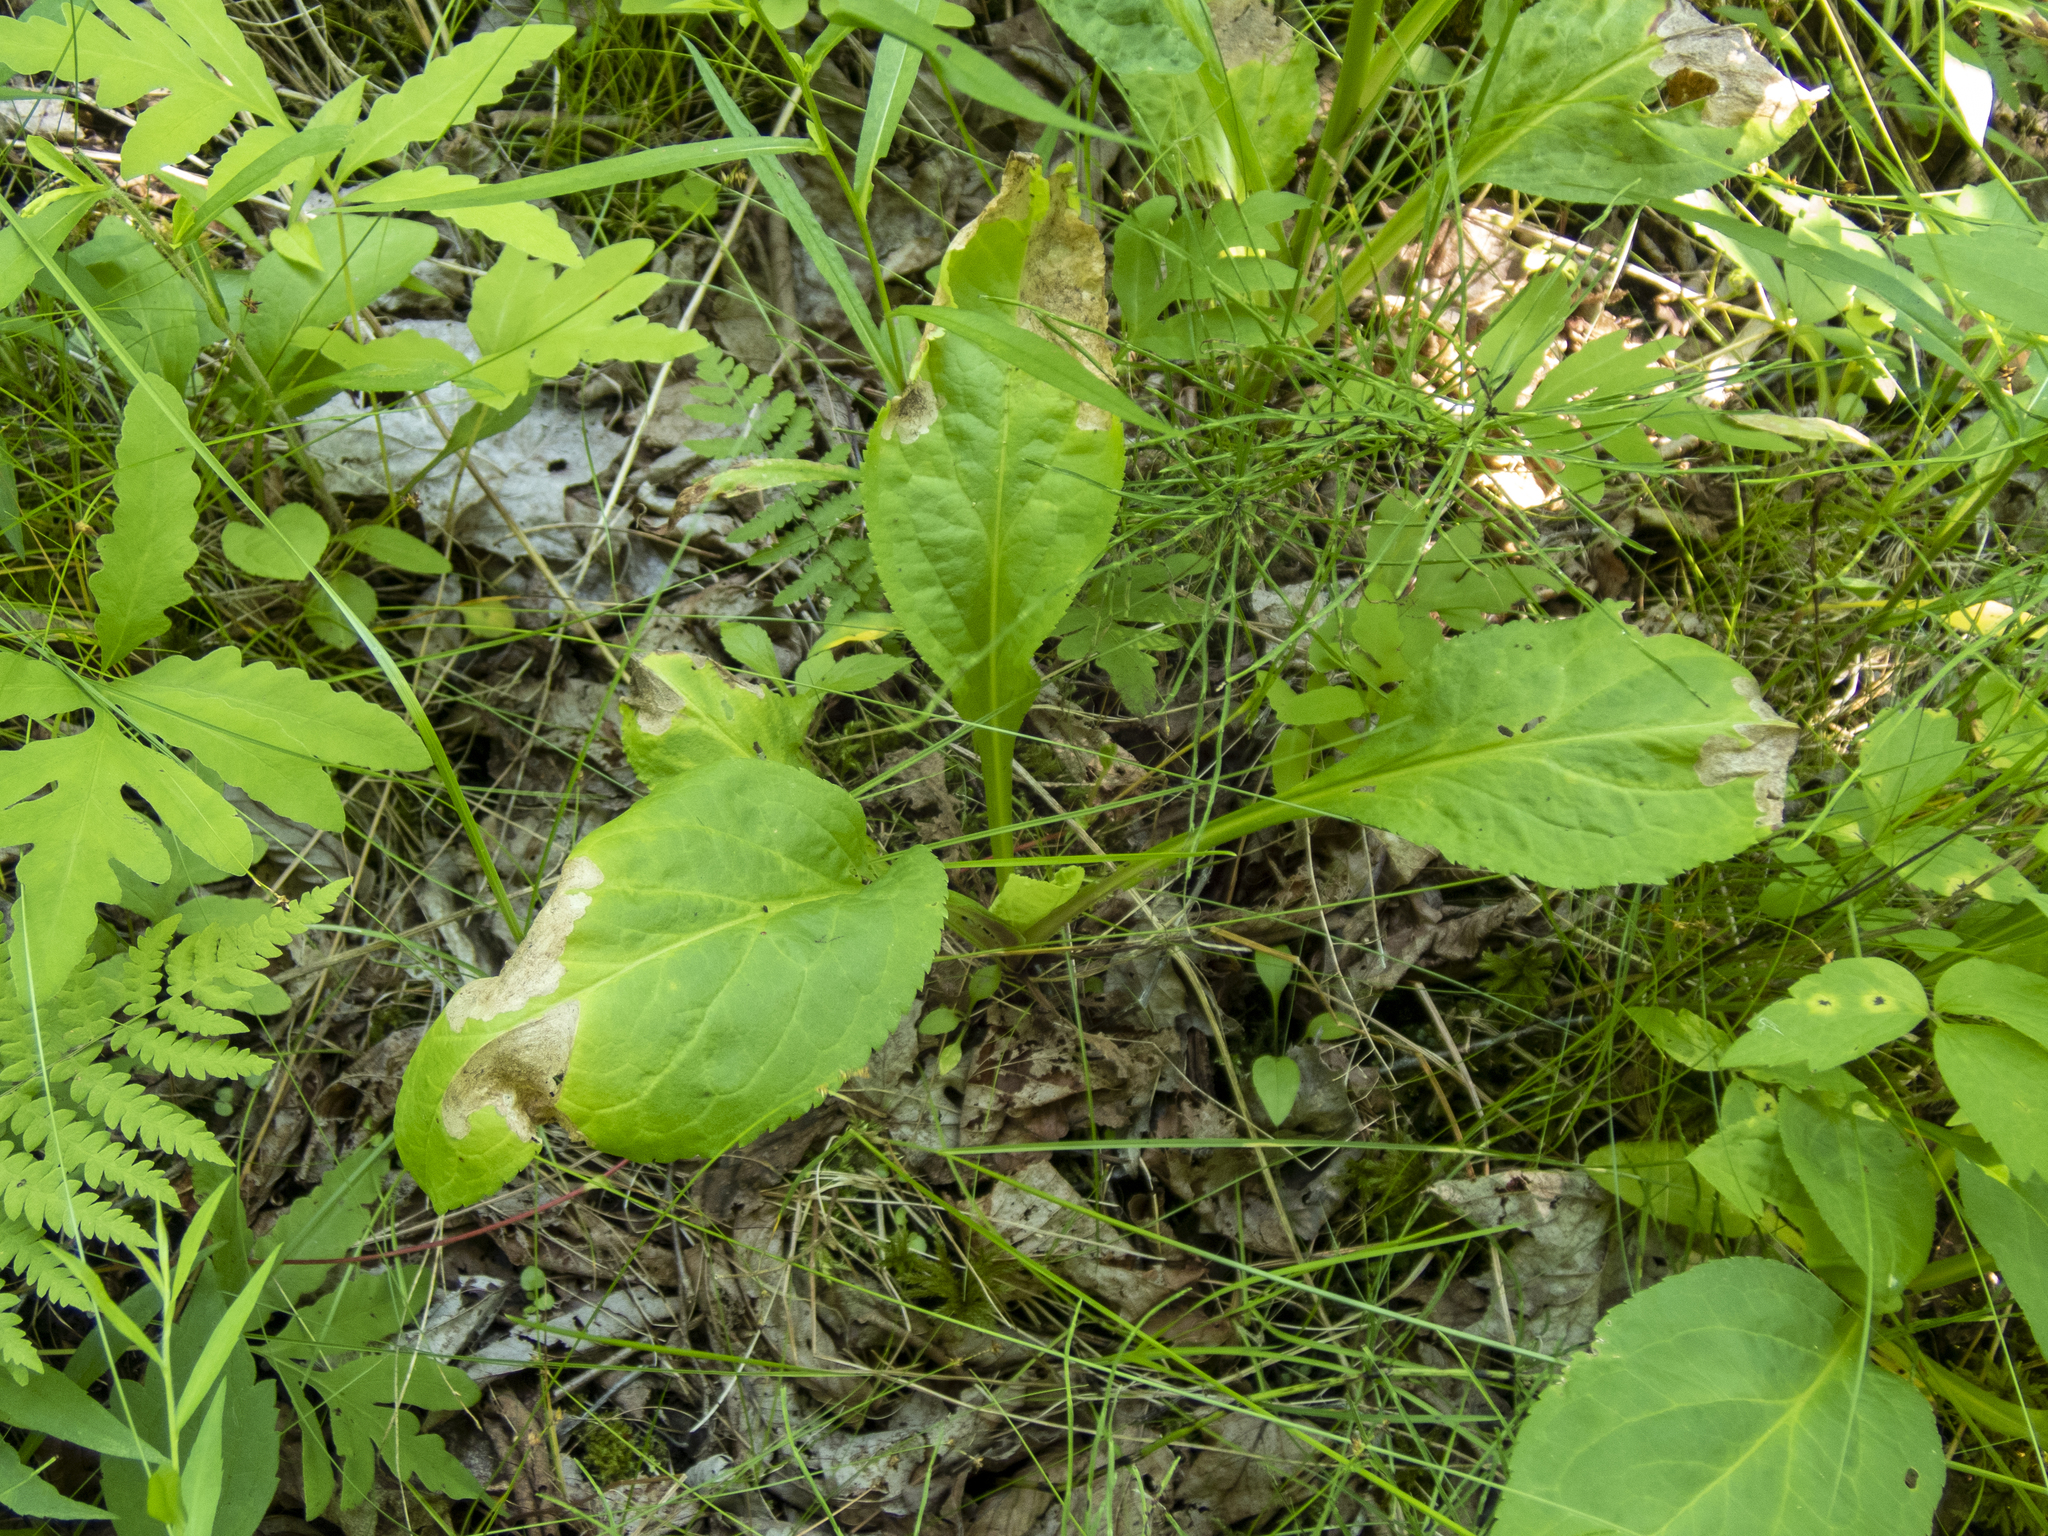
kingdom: Plantae
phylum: Tracheophyta
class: Magnoliopsida
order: Asterales
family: Asteraceae
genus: Solidago
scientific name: Solidago patula
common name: Rough-leaf goldenrod
